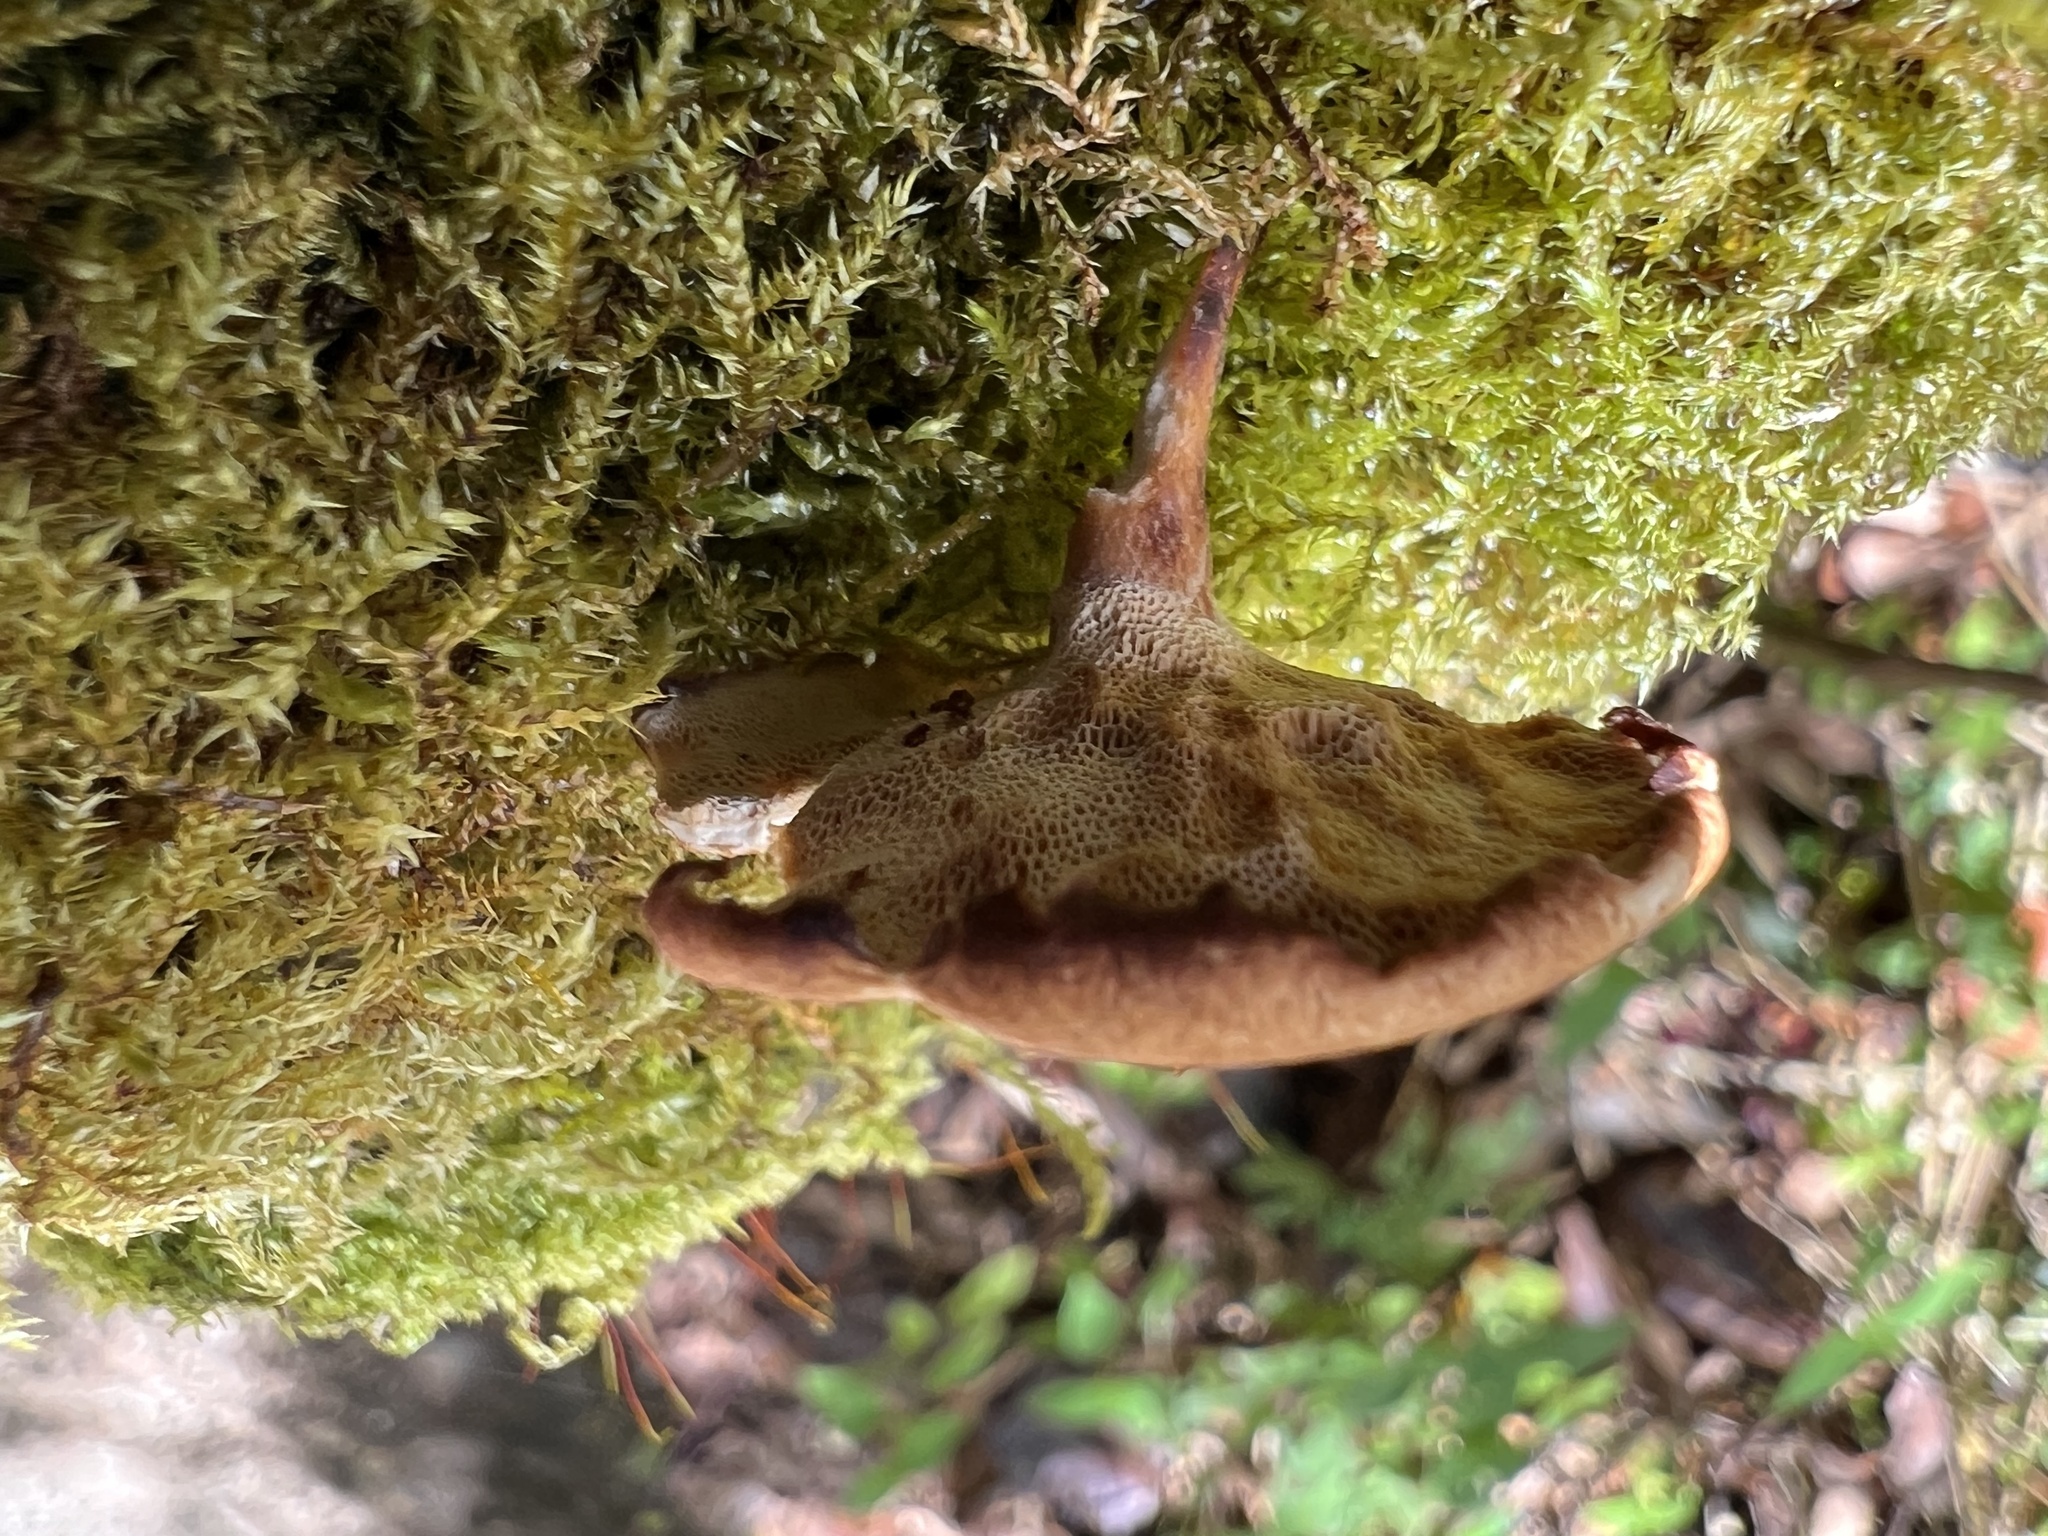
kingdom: Fungi
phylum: Basidiomycota
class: Agaricomycetes
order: Polyporales
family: Polyporaceae
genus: Lentinus
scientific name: Lentinus arcularius
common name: Spring polypore
